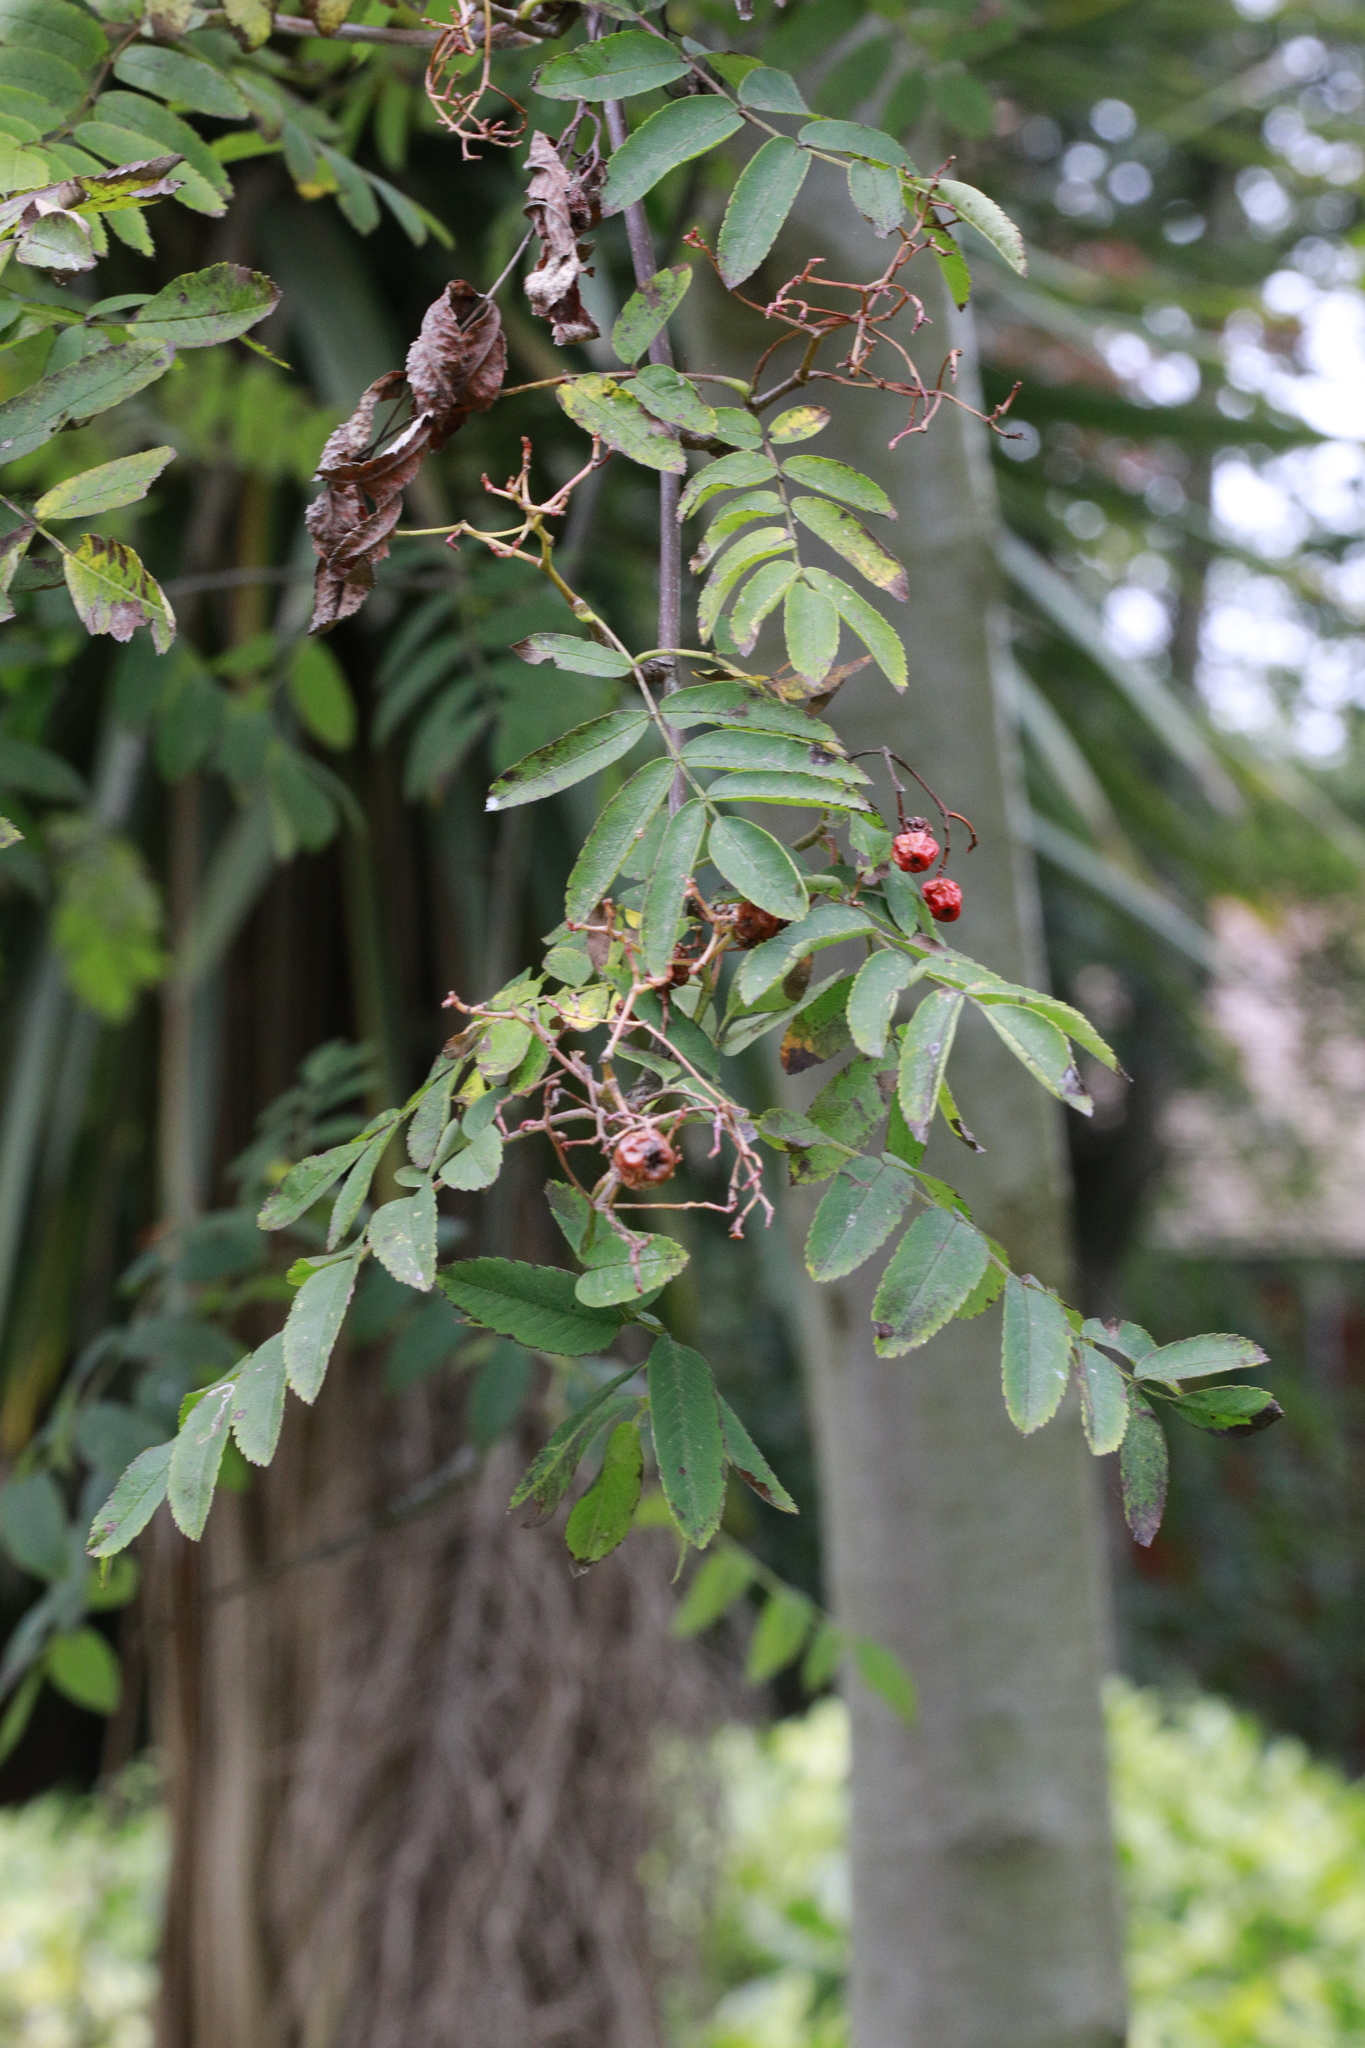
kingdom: Plantae
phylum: Tracheophyta
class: Magnoliopsida
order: Rosales
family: Rosaceae
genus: Sorbus
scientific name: Sorbus aucuparia
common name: Rowan
